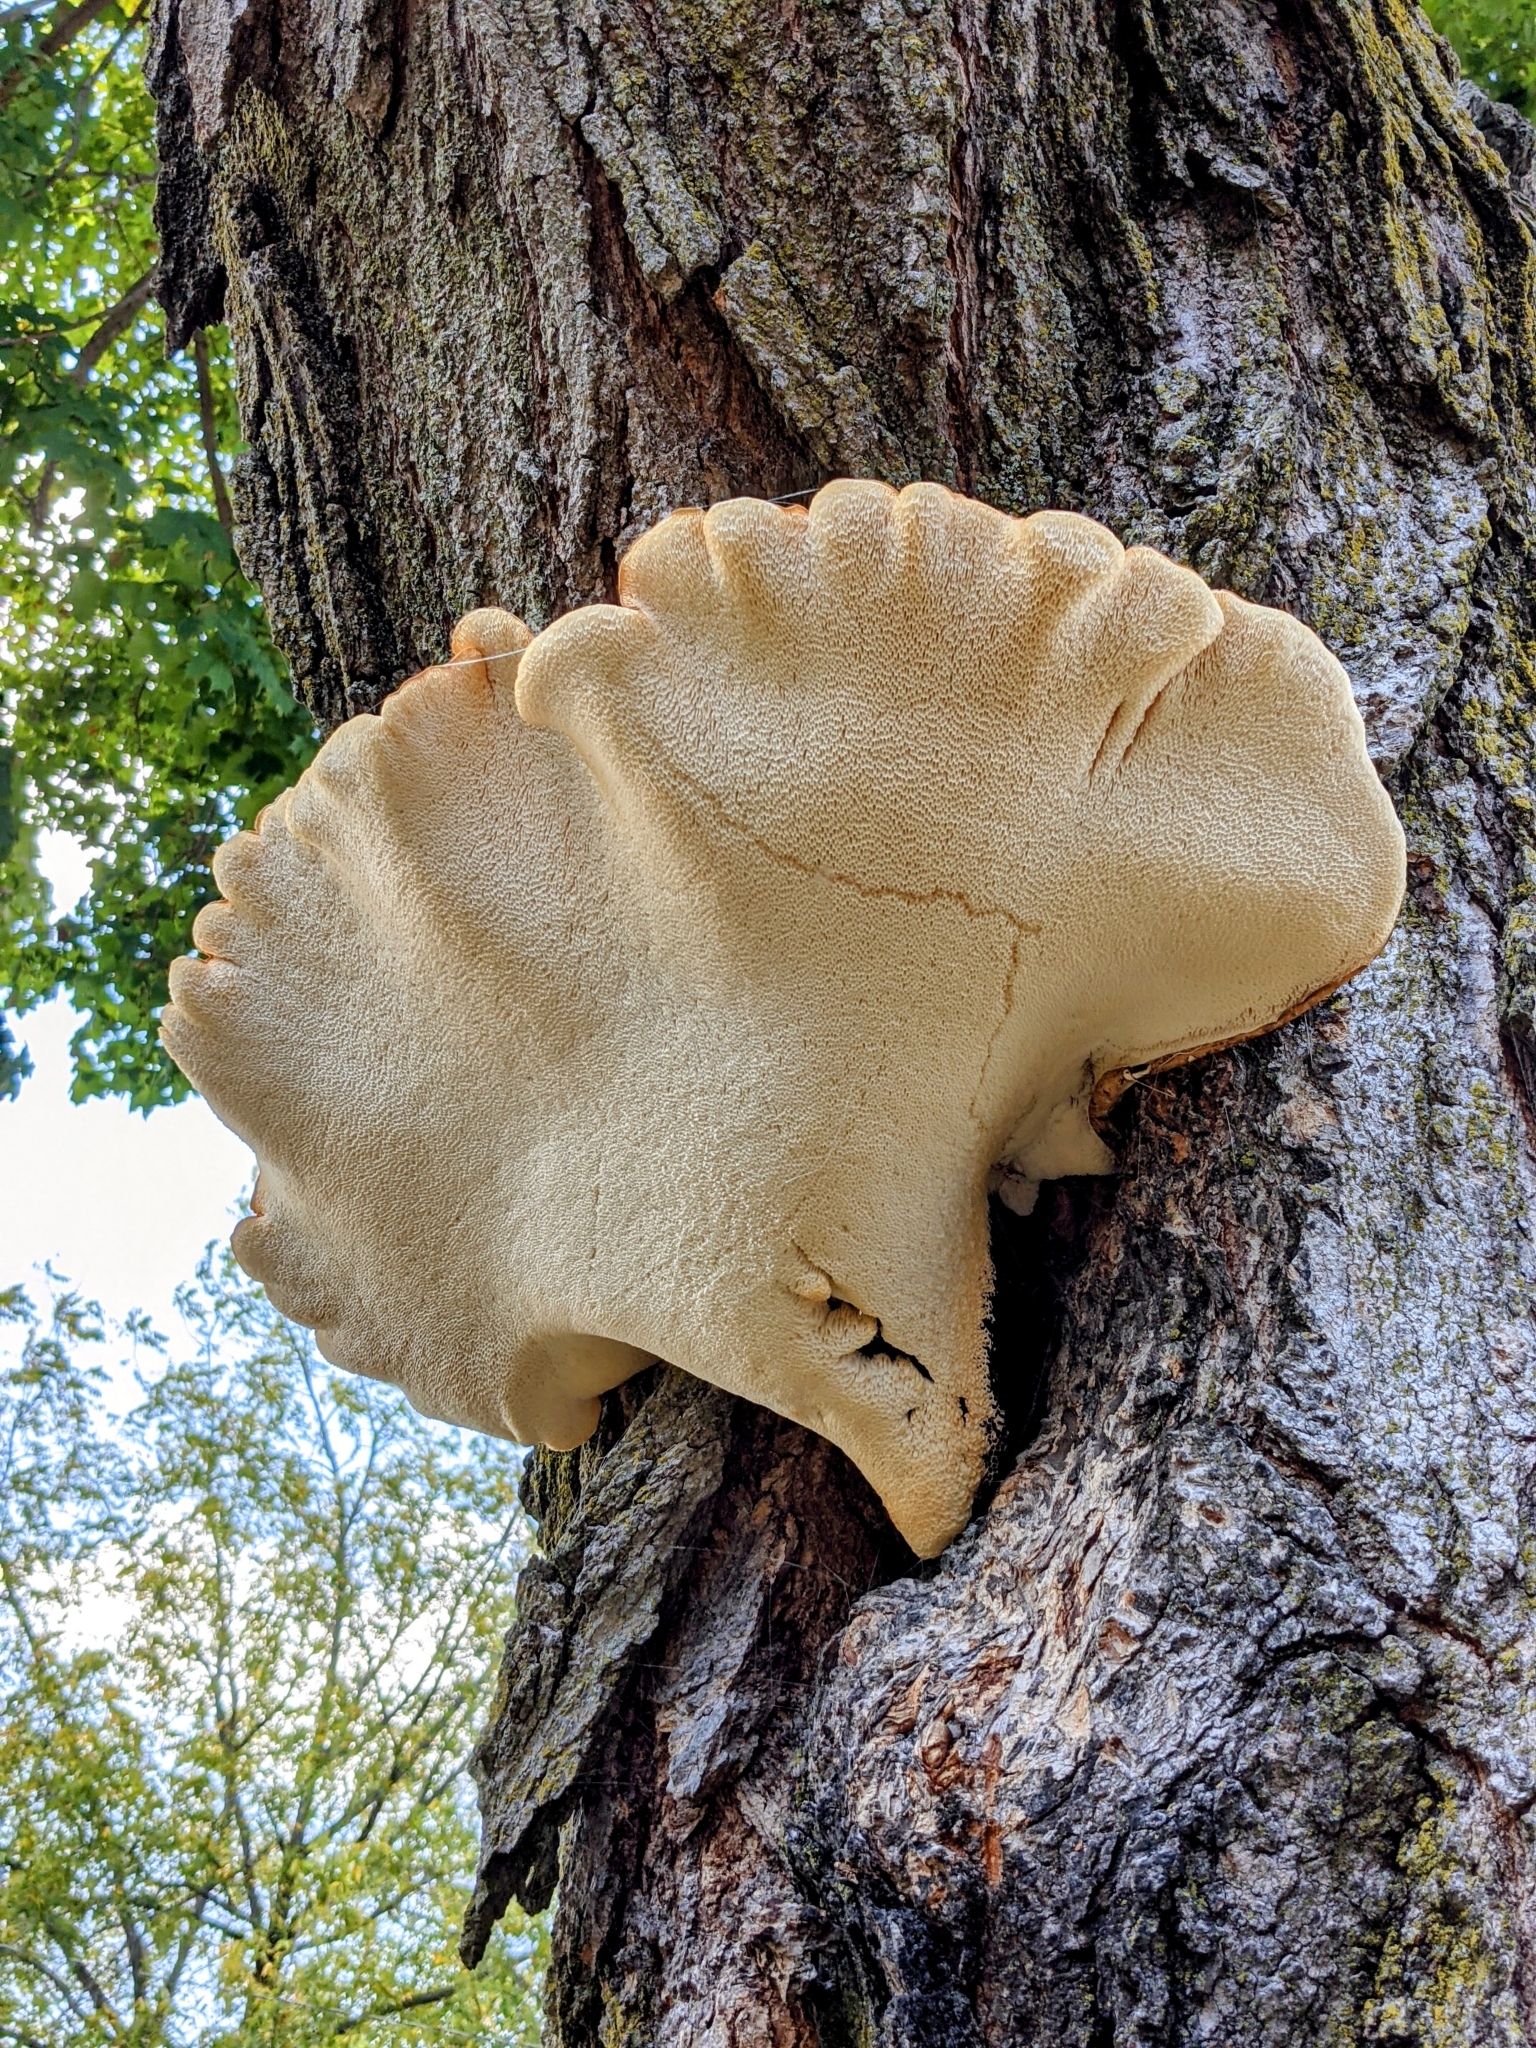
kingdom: Fungi
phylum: Basidiomycota
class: Agaricomycetes
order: Polyporales
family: Polyporaceae
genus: Cerioporus
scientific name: Cerioporus squamosus
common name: Dryad's saddle
